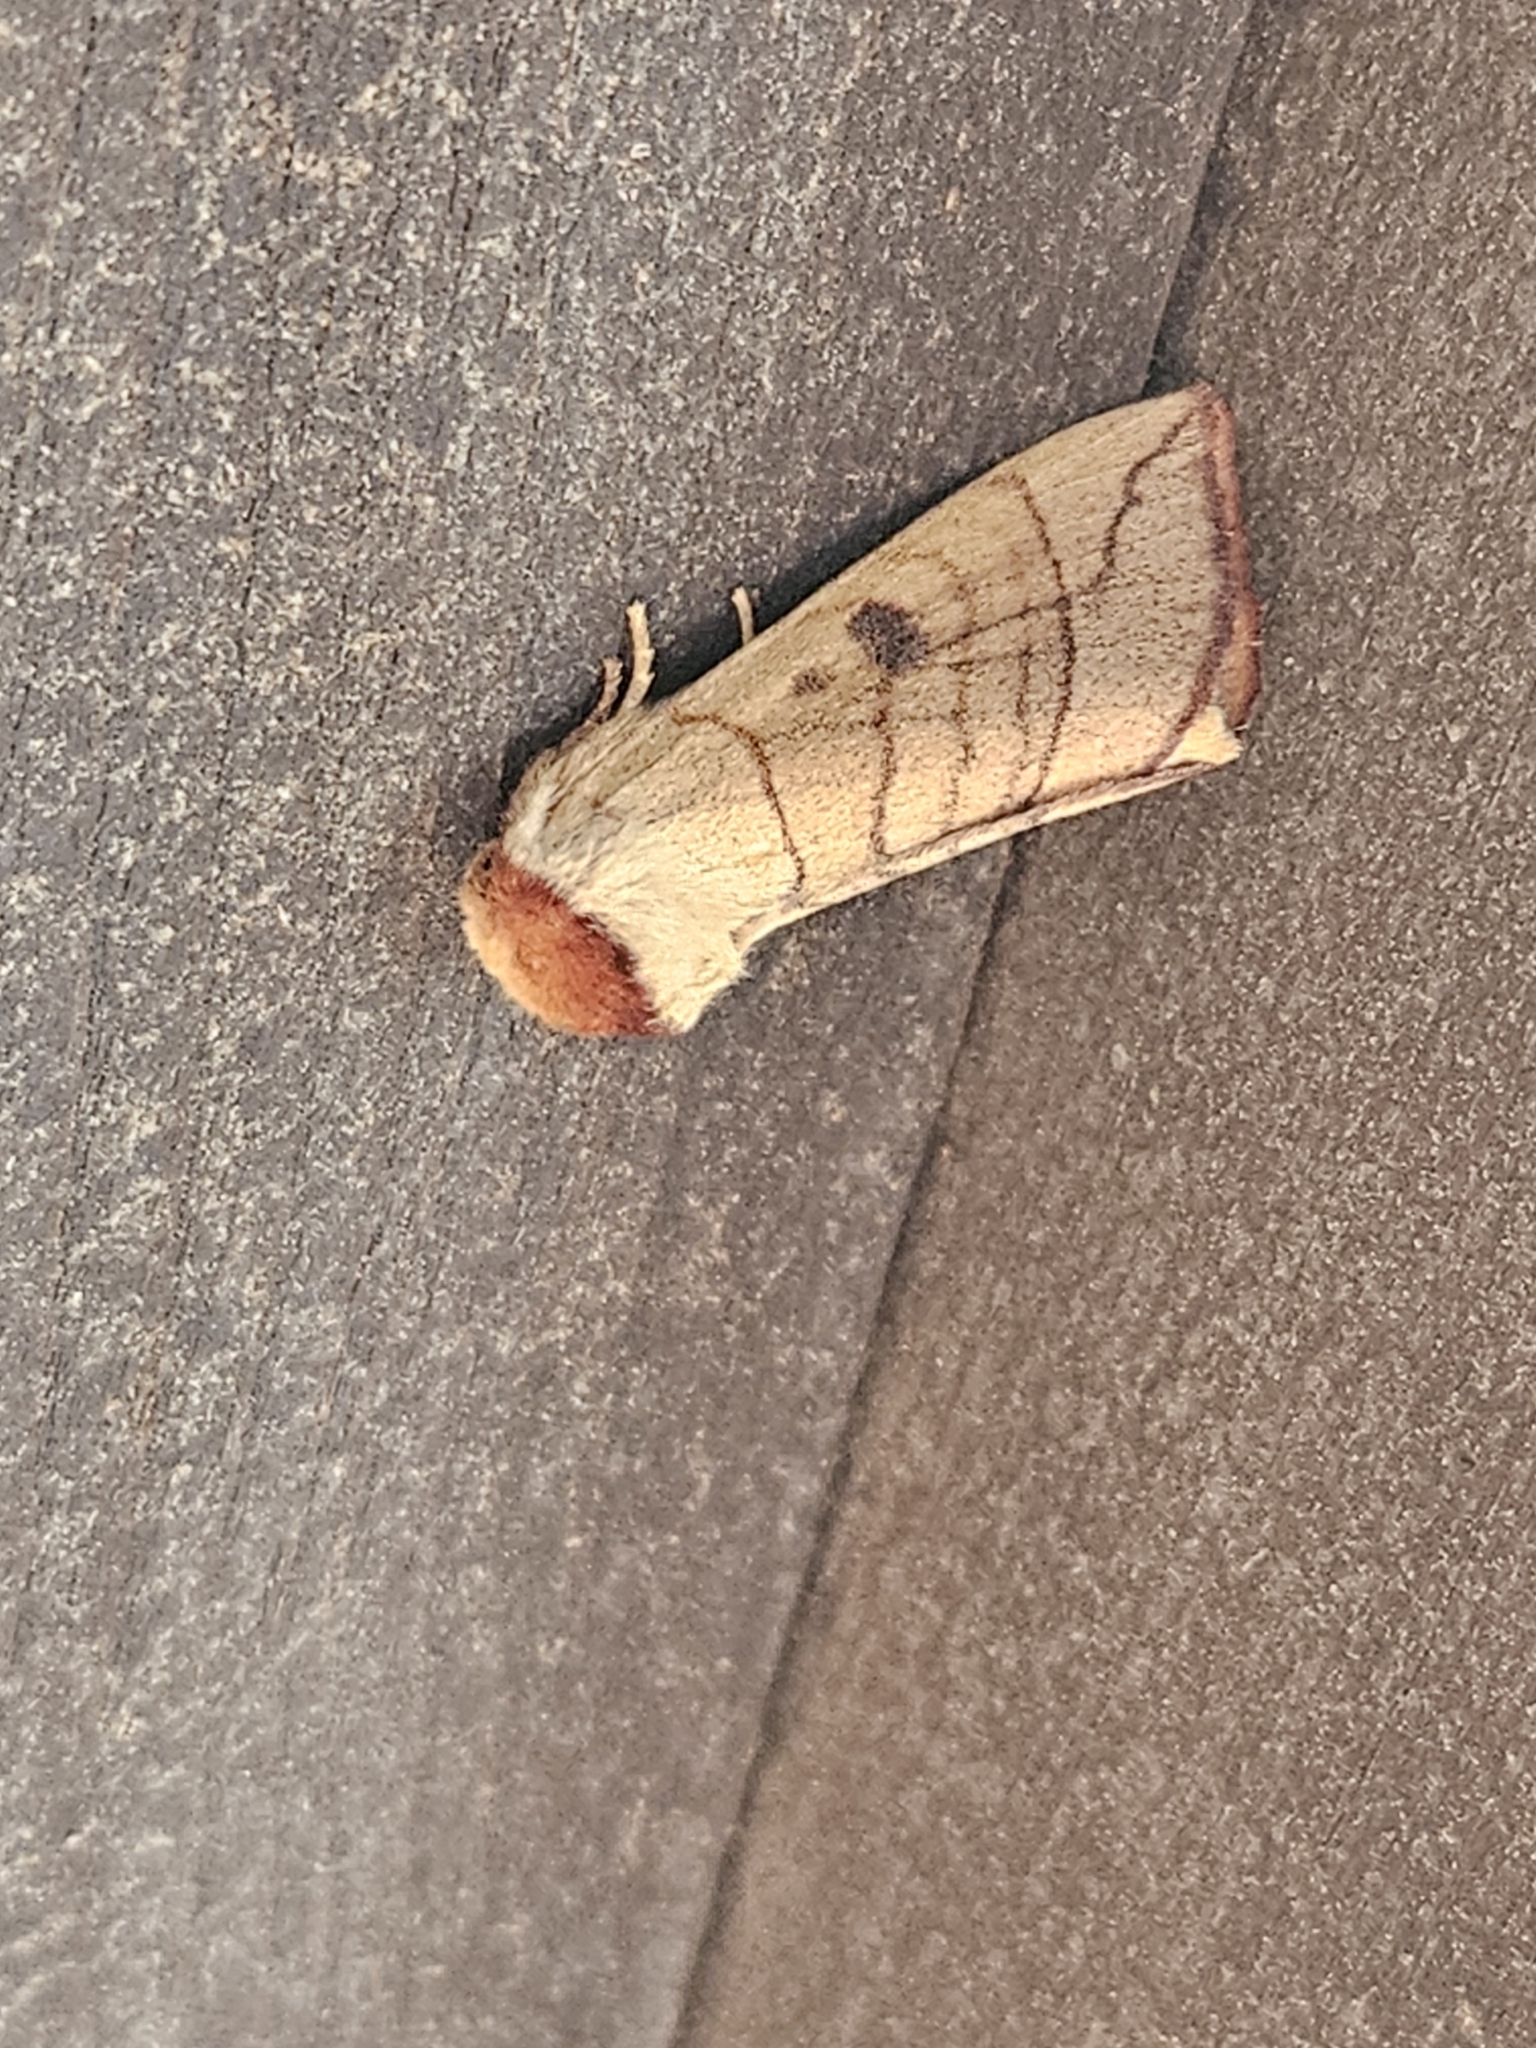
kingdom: Animalia
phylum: Arthropoda
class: Insecta
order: Lepidoptera
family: Notodontidae
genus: Datana
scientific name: Datana perspicua
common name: Spotted datana
